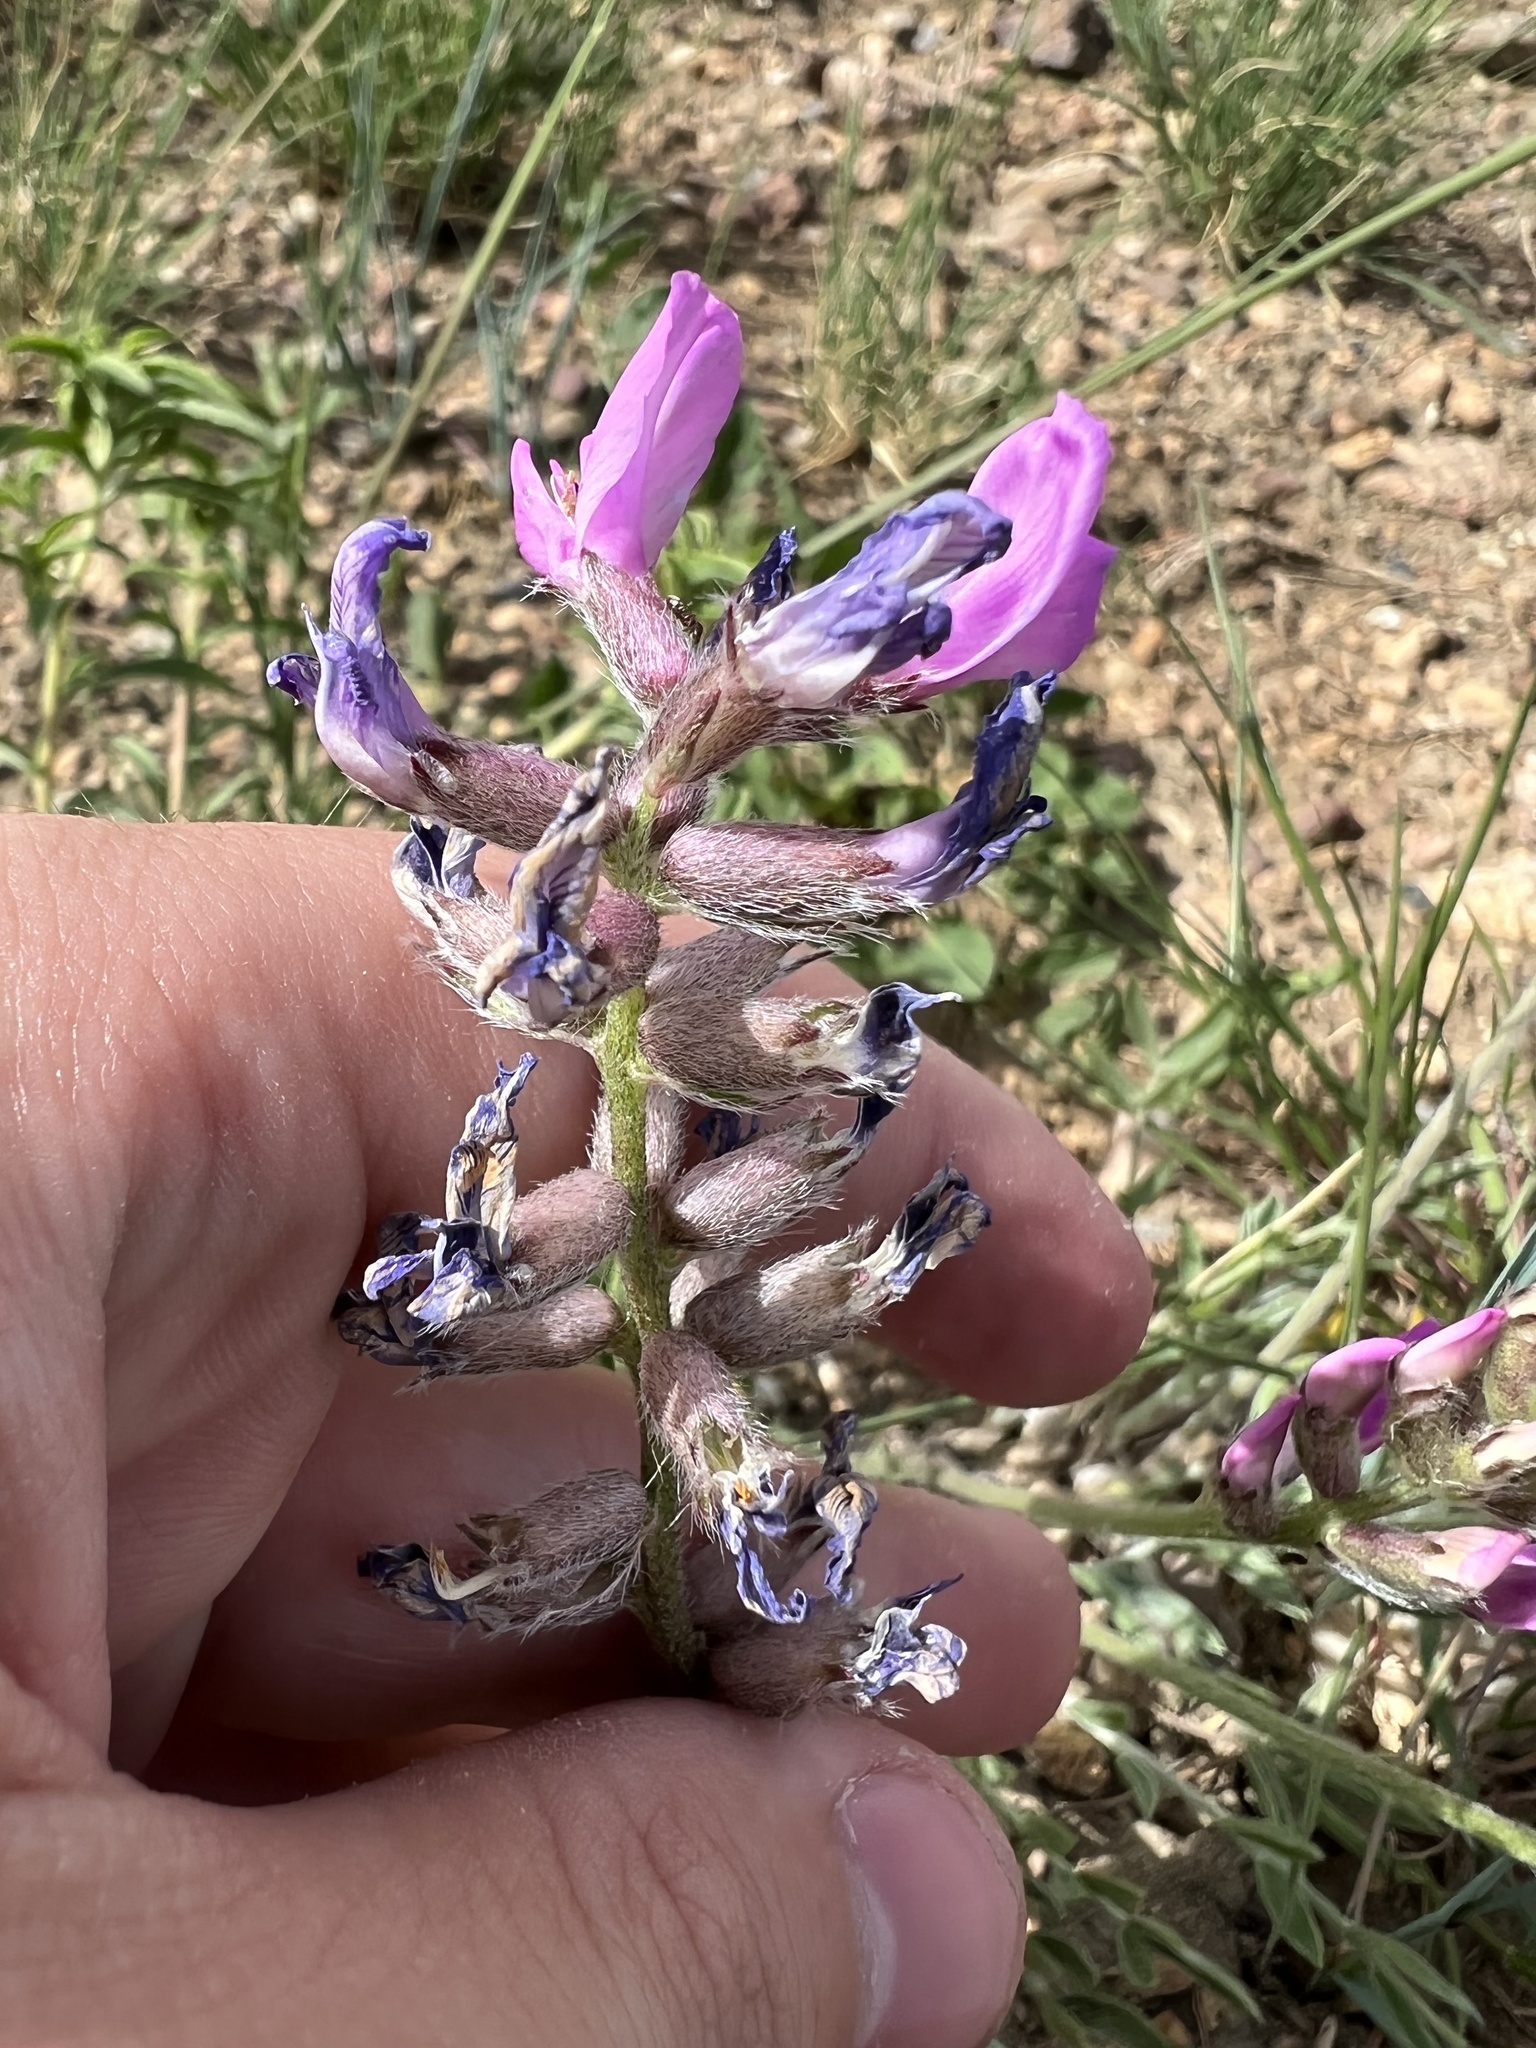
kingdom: Plantae
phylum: Tracheophyta
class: Magnoliopsida
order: Fabales
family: Fabaceae
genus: Oxytropis
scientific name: Oxytropis lambertii
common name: Purple locoweed
